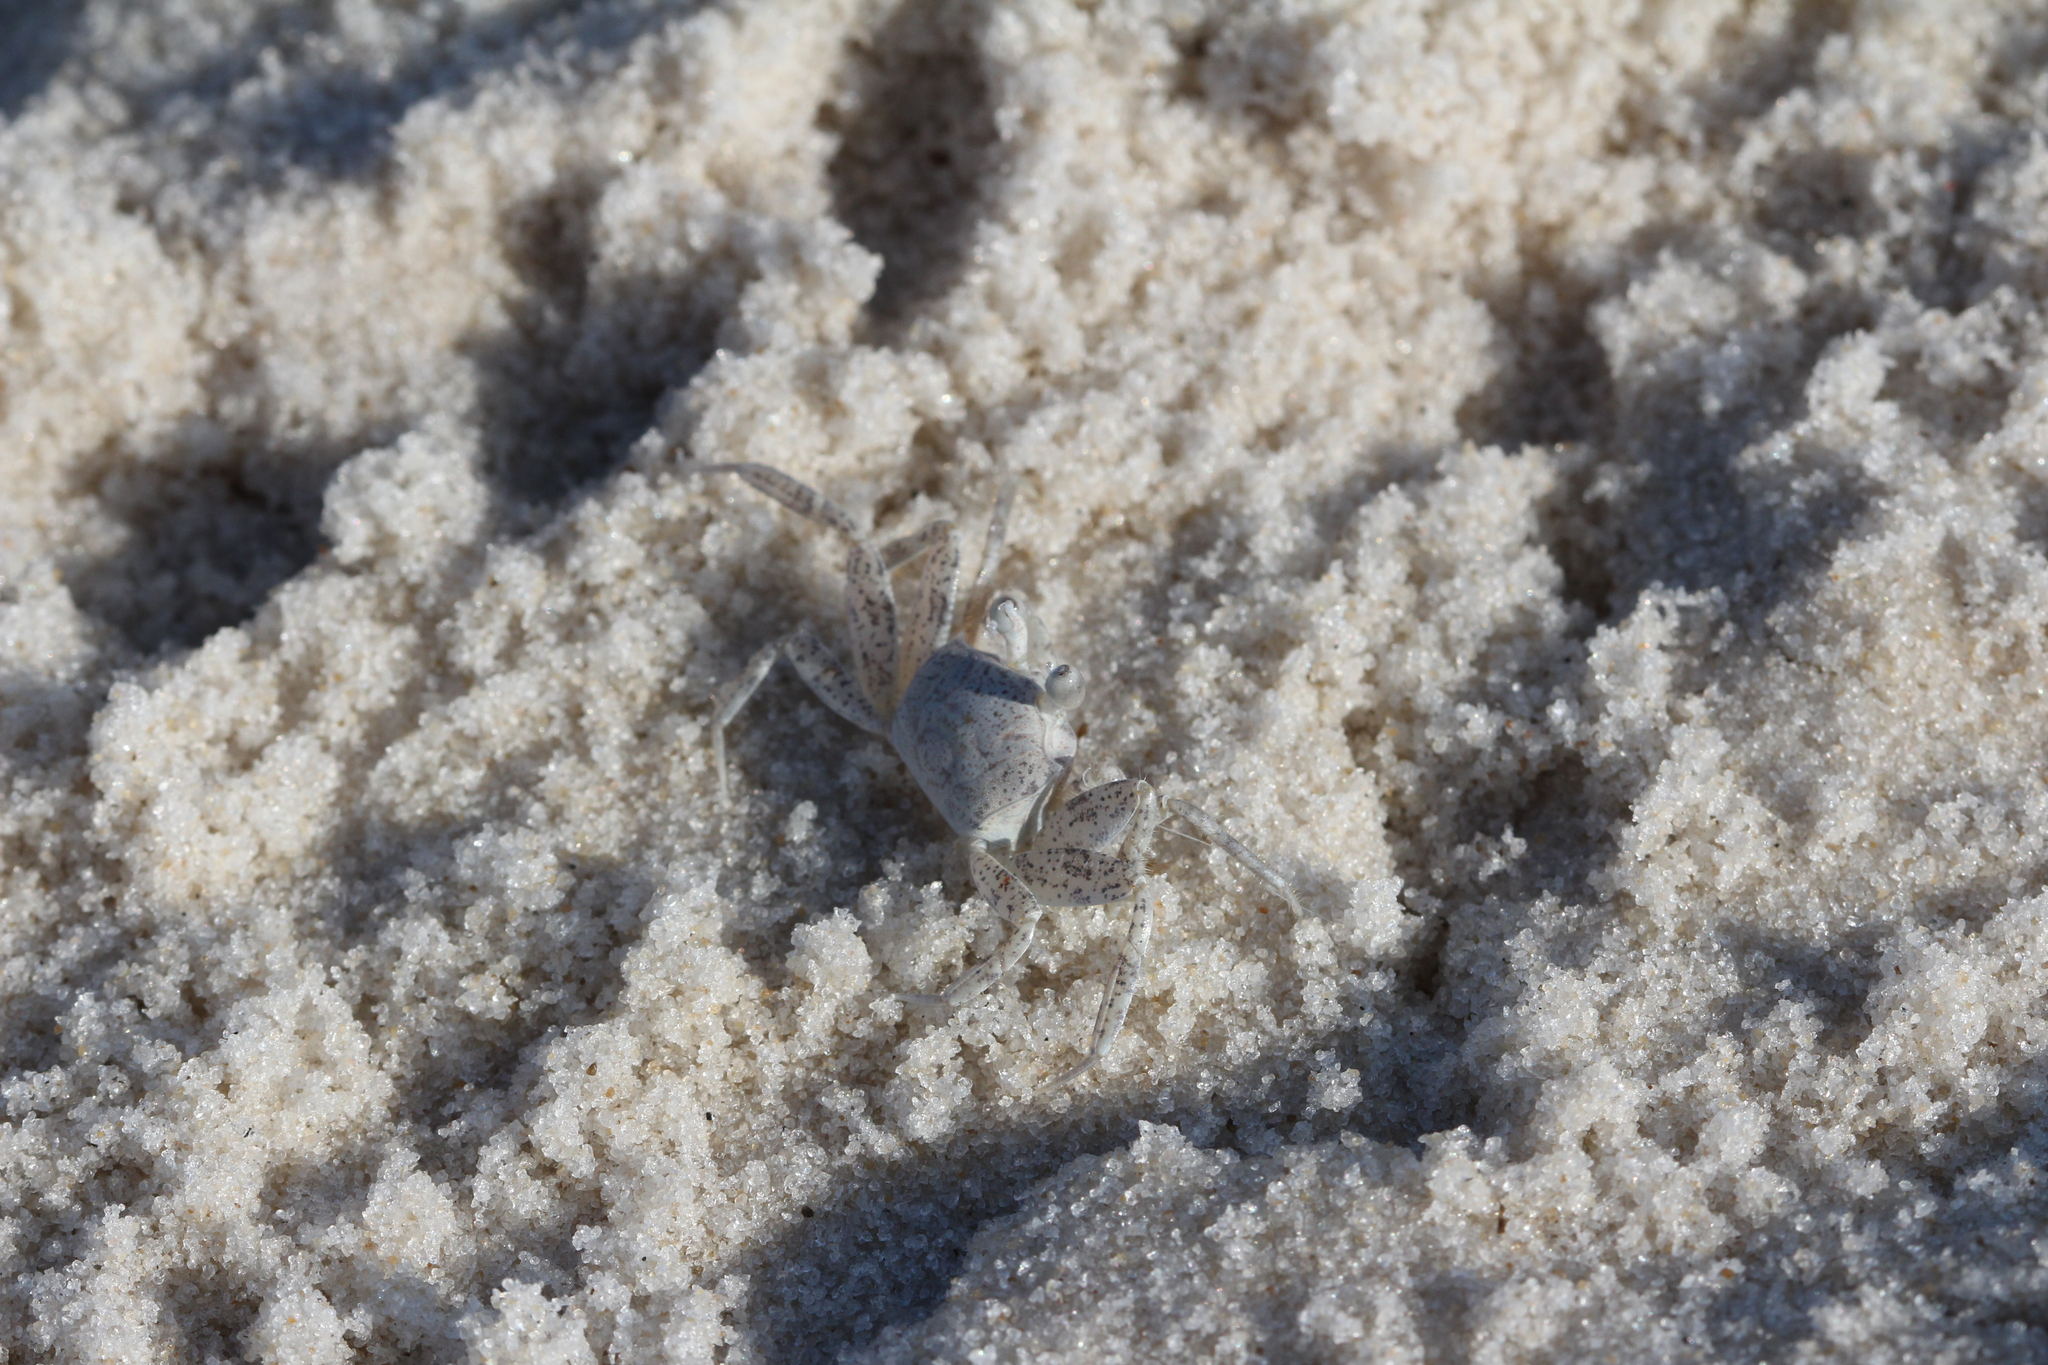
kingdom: Animalia
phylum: Arthropoda
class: Malacostraca
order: Decapoda
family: Ocypodidae
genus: Ocypode
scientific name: Ocypode quadrata
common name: Ghost crab
